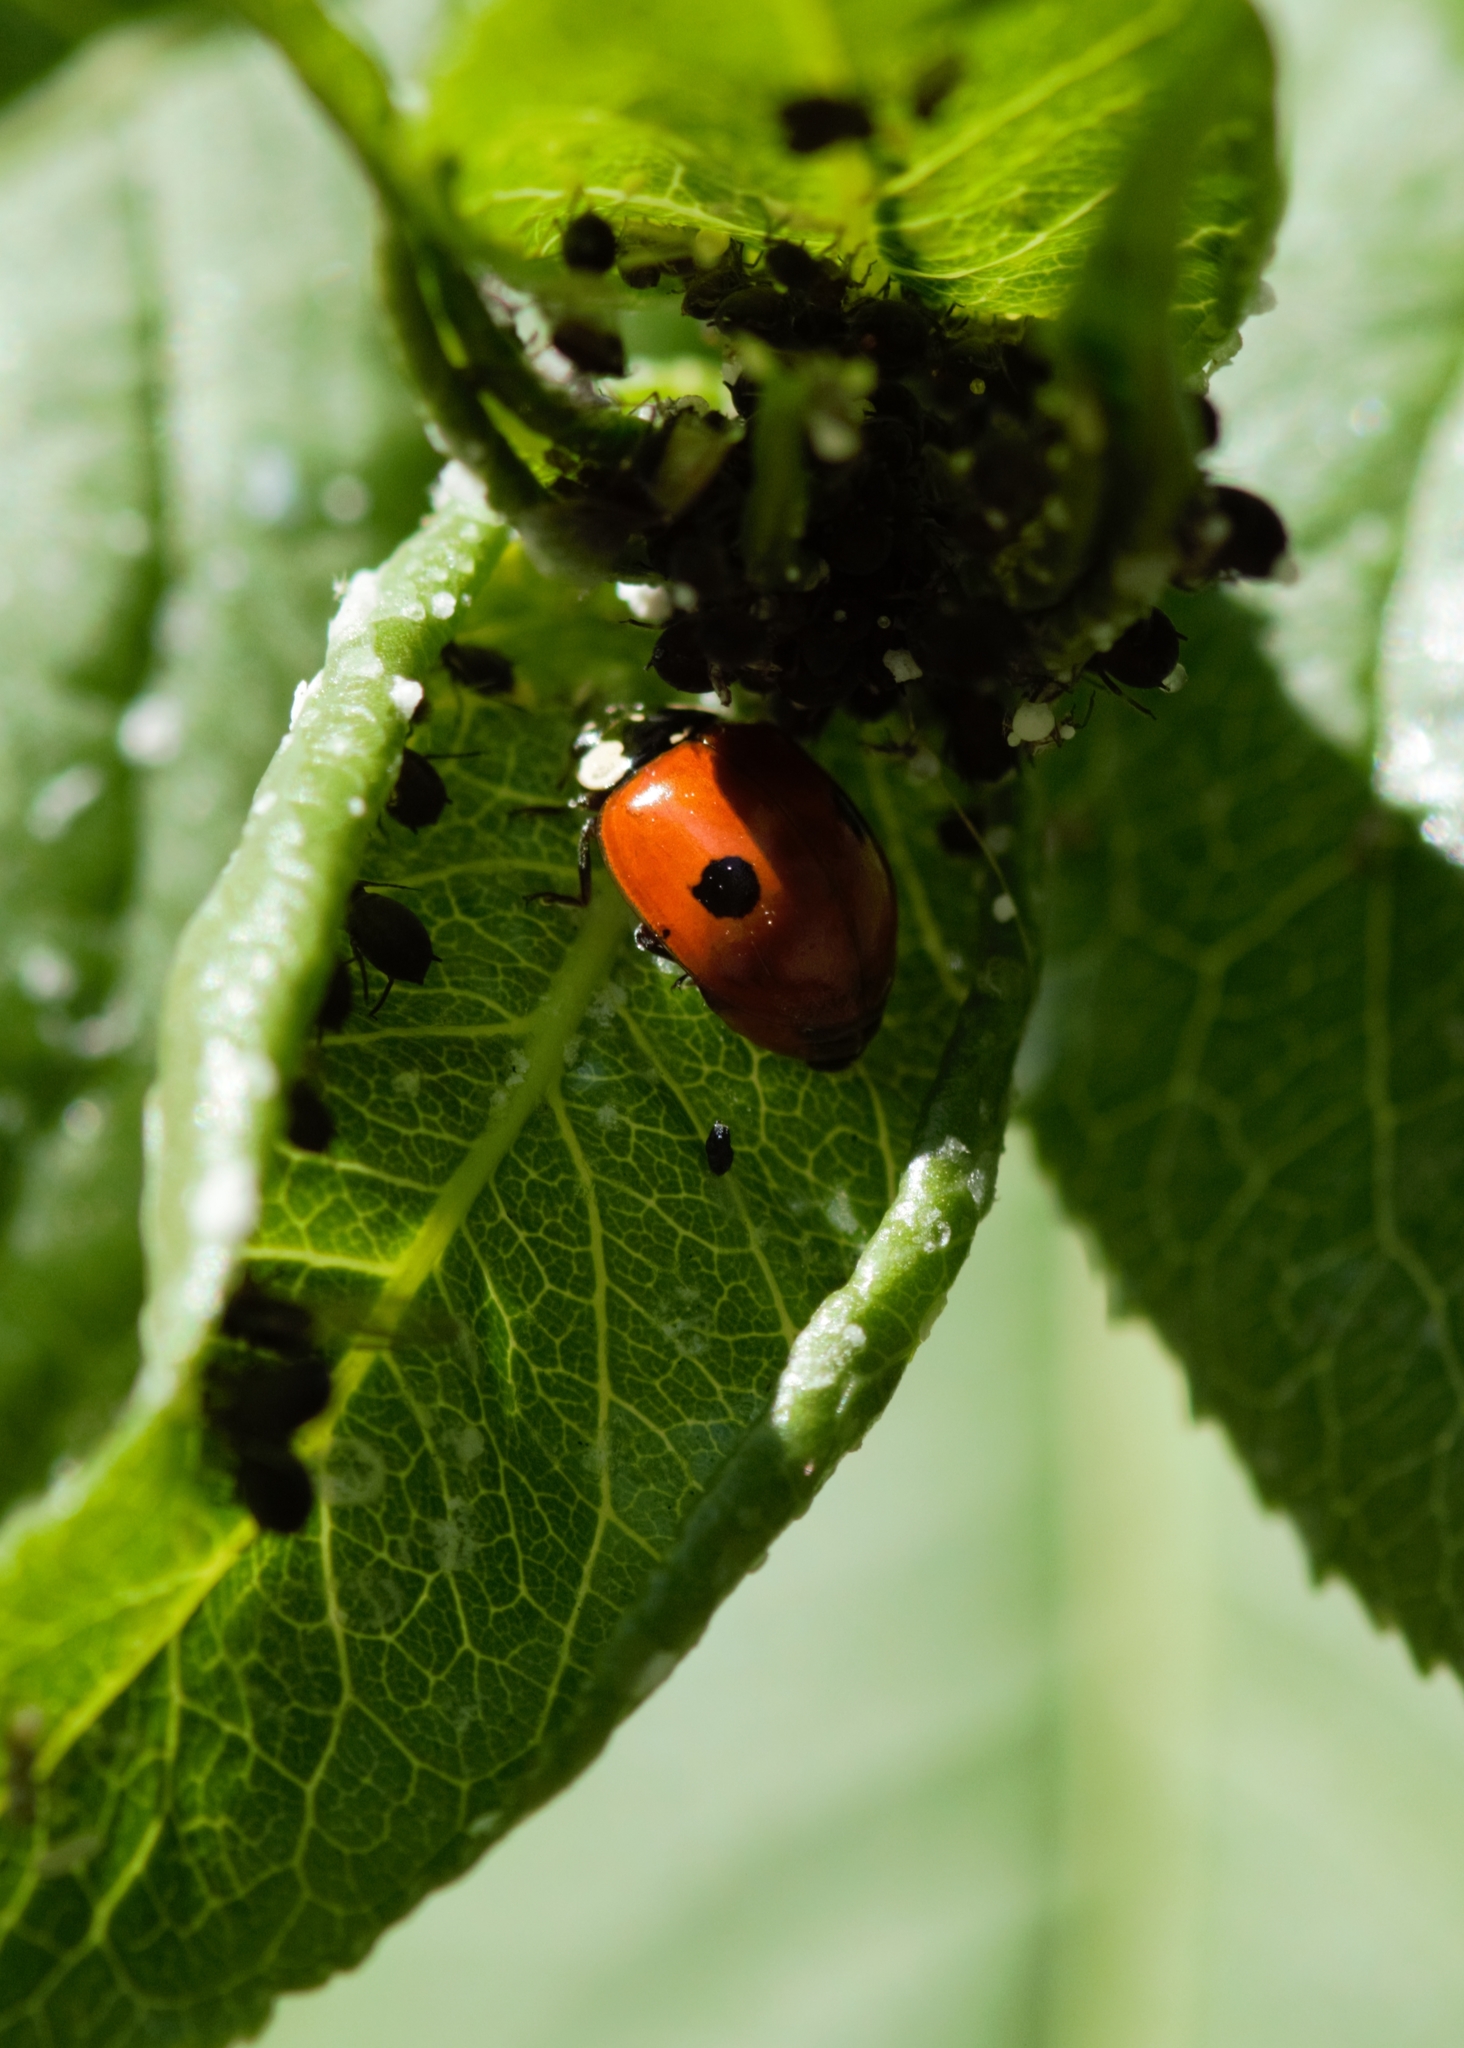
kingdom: Animalia
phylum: Arthropoda
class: Insecta
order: Coleoptera
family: Coccinellidae
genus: Adalia
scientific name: Adalia bipunctata
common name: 2-spot ladybird
